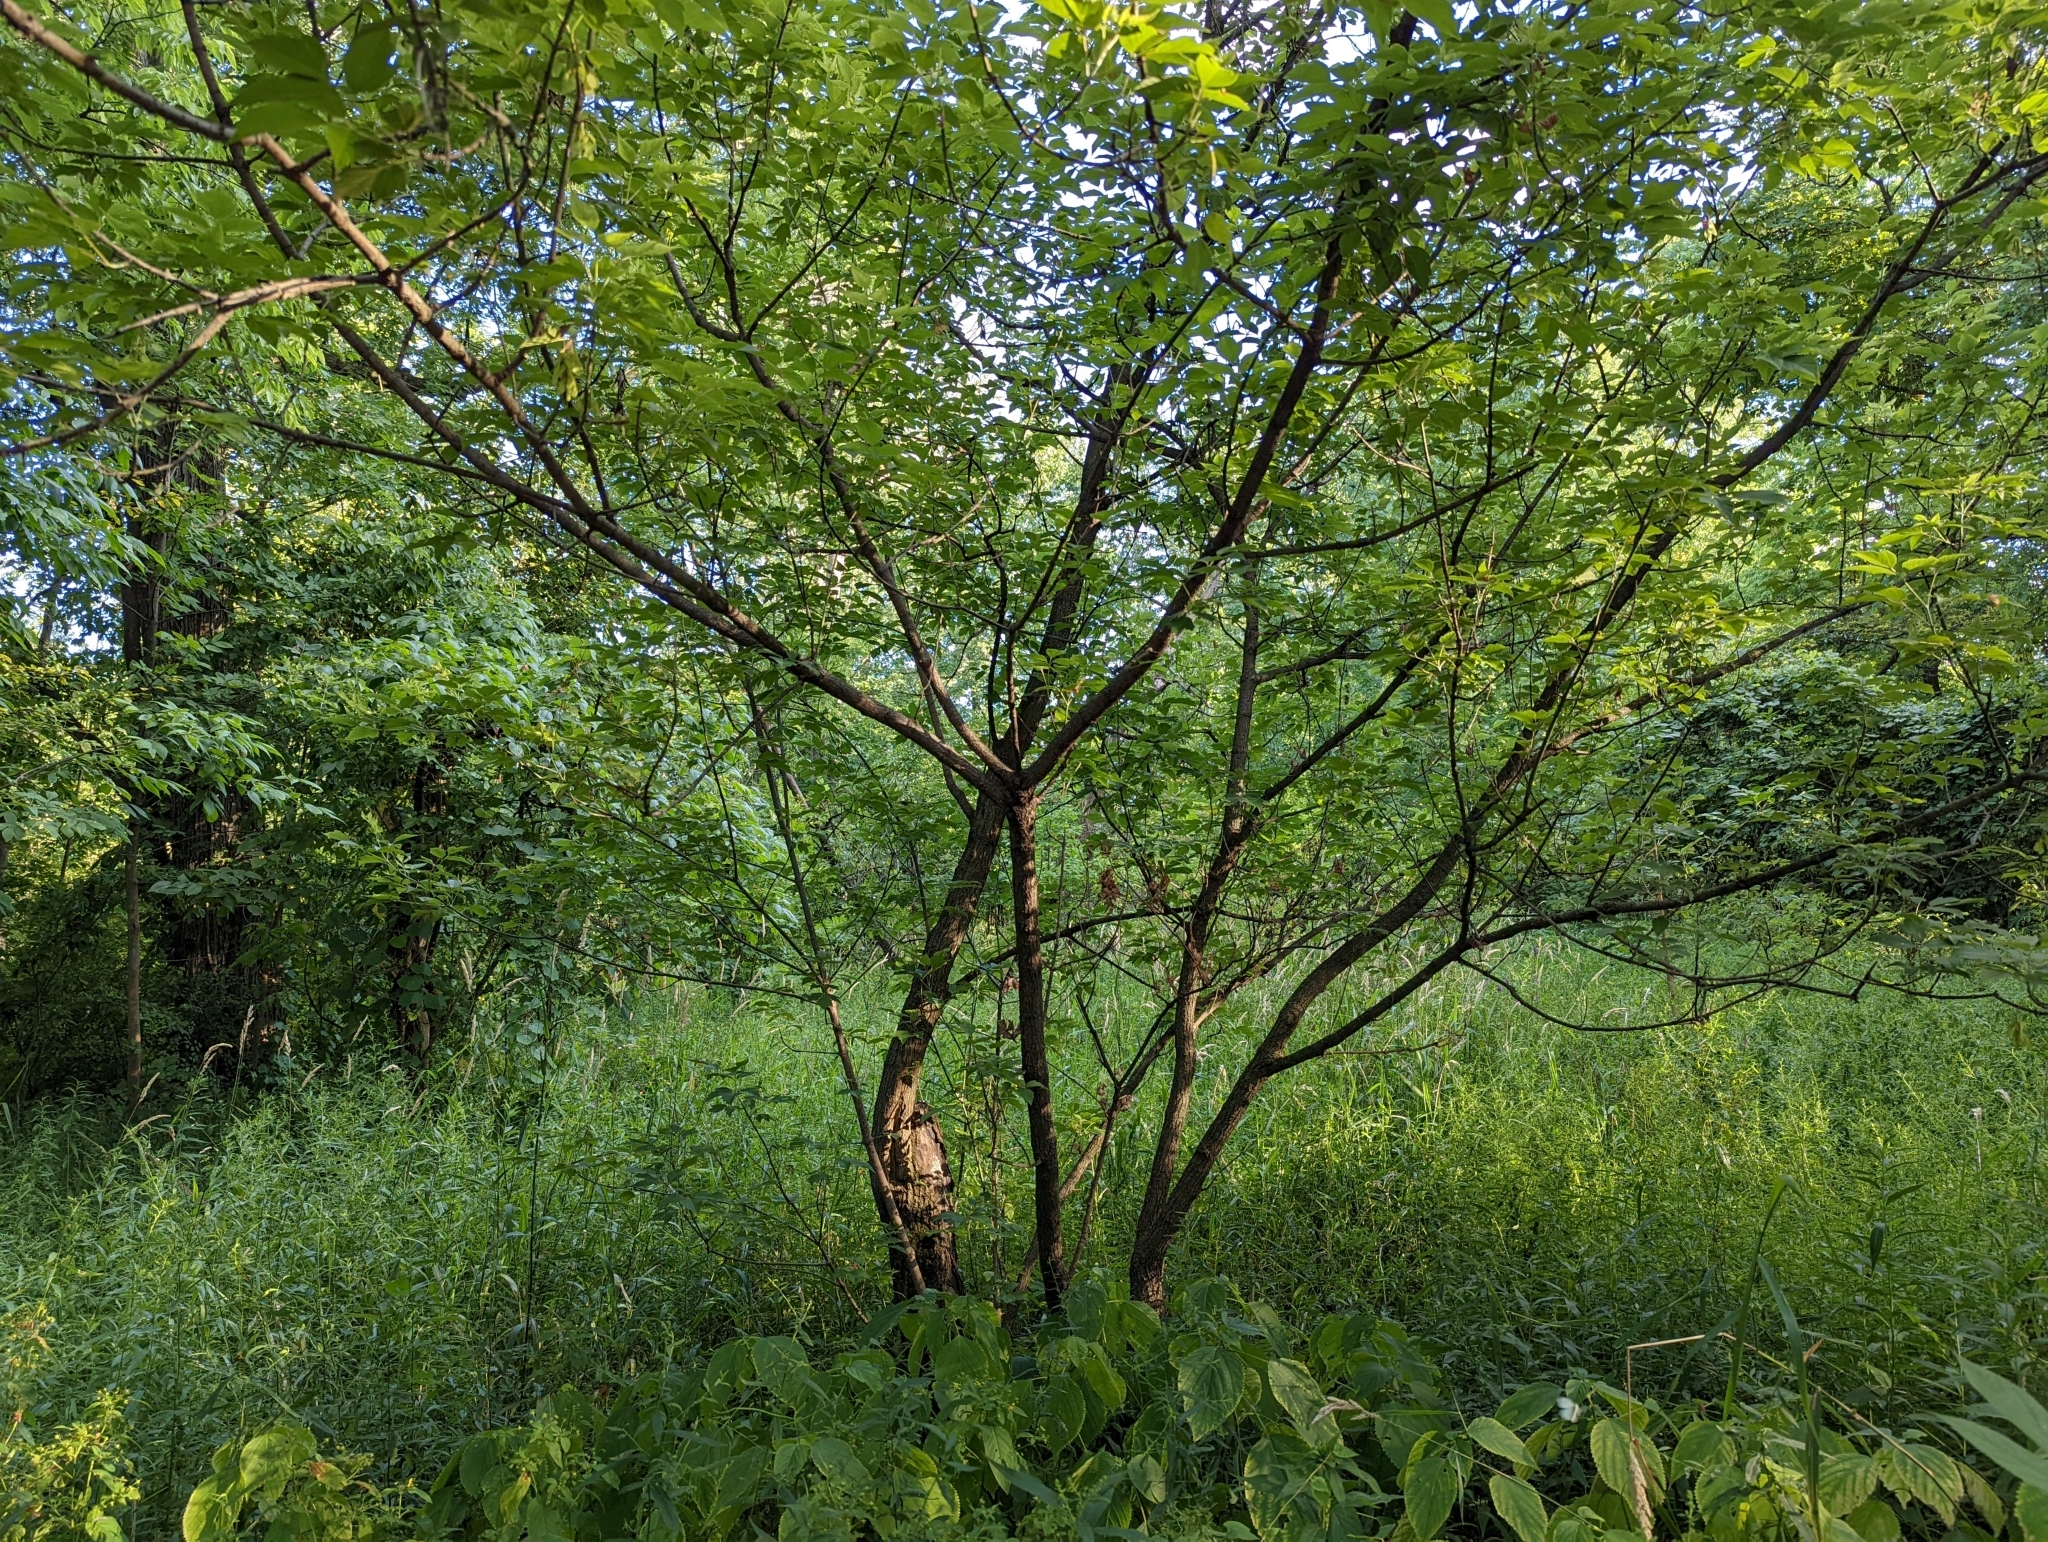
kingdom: Plantae
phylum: Tracheophyta
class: Magnoliopsida
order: Sapindales
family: Sapindaceae
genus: Acer
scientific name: Acer negundo
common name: Ashleaf maple
